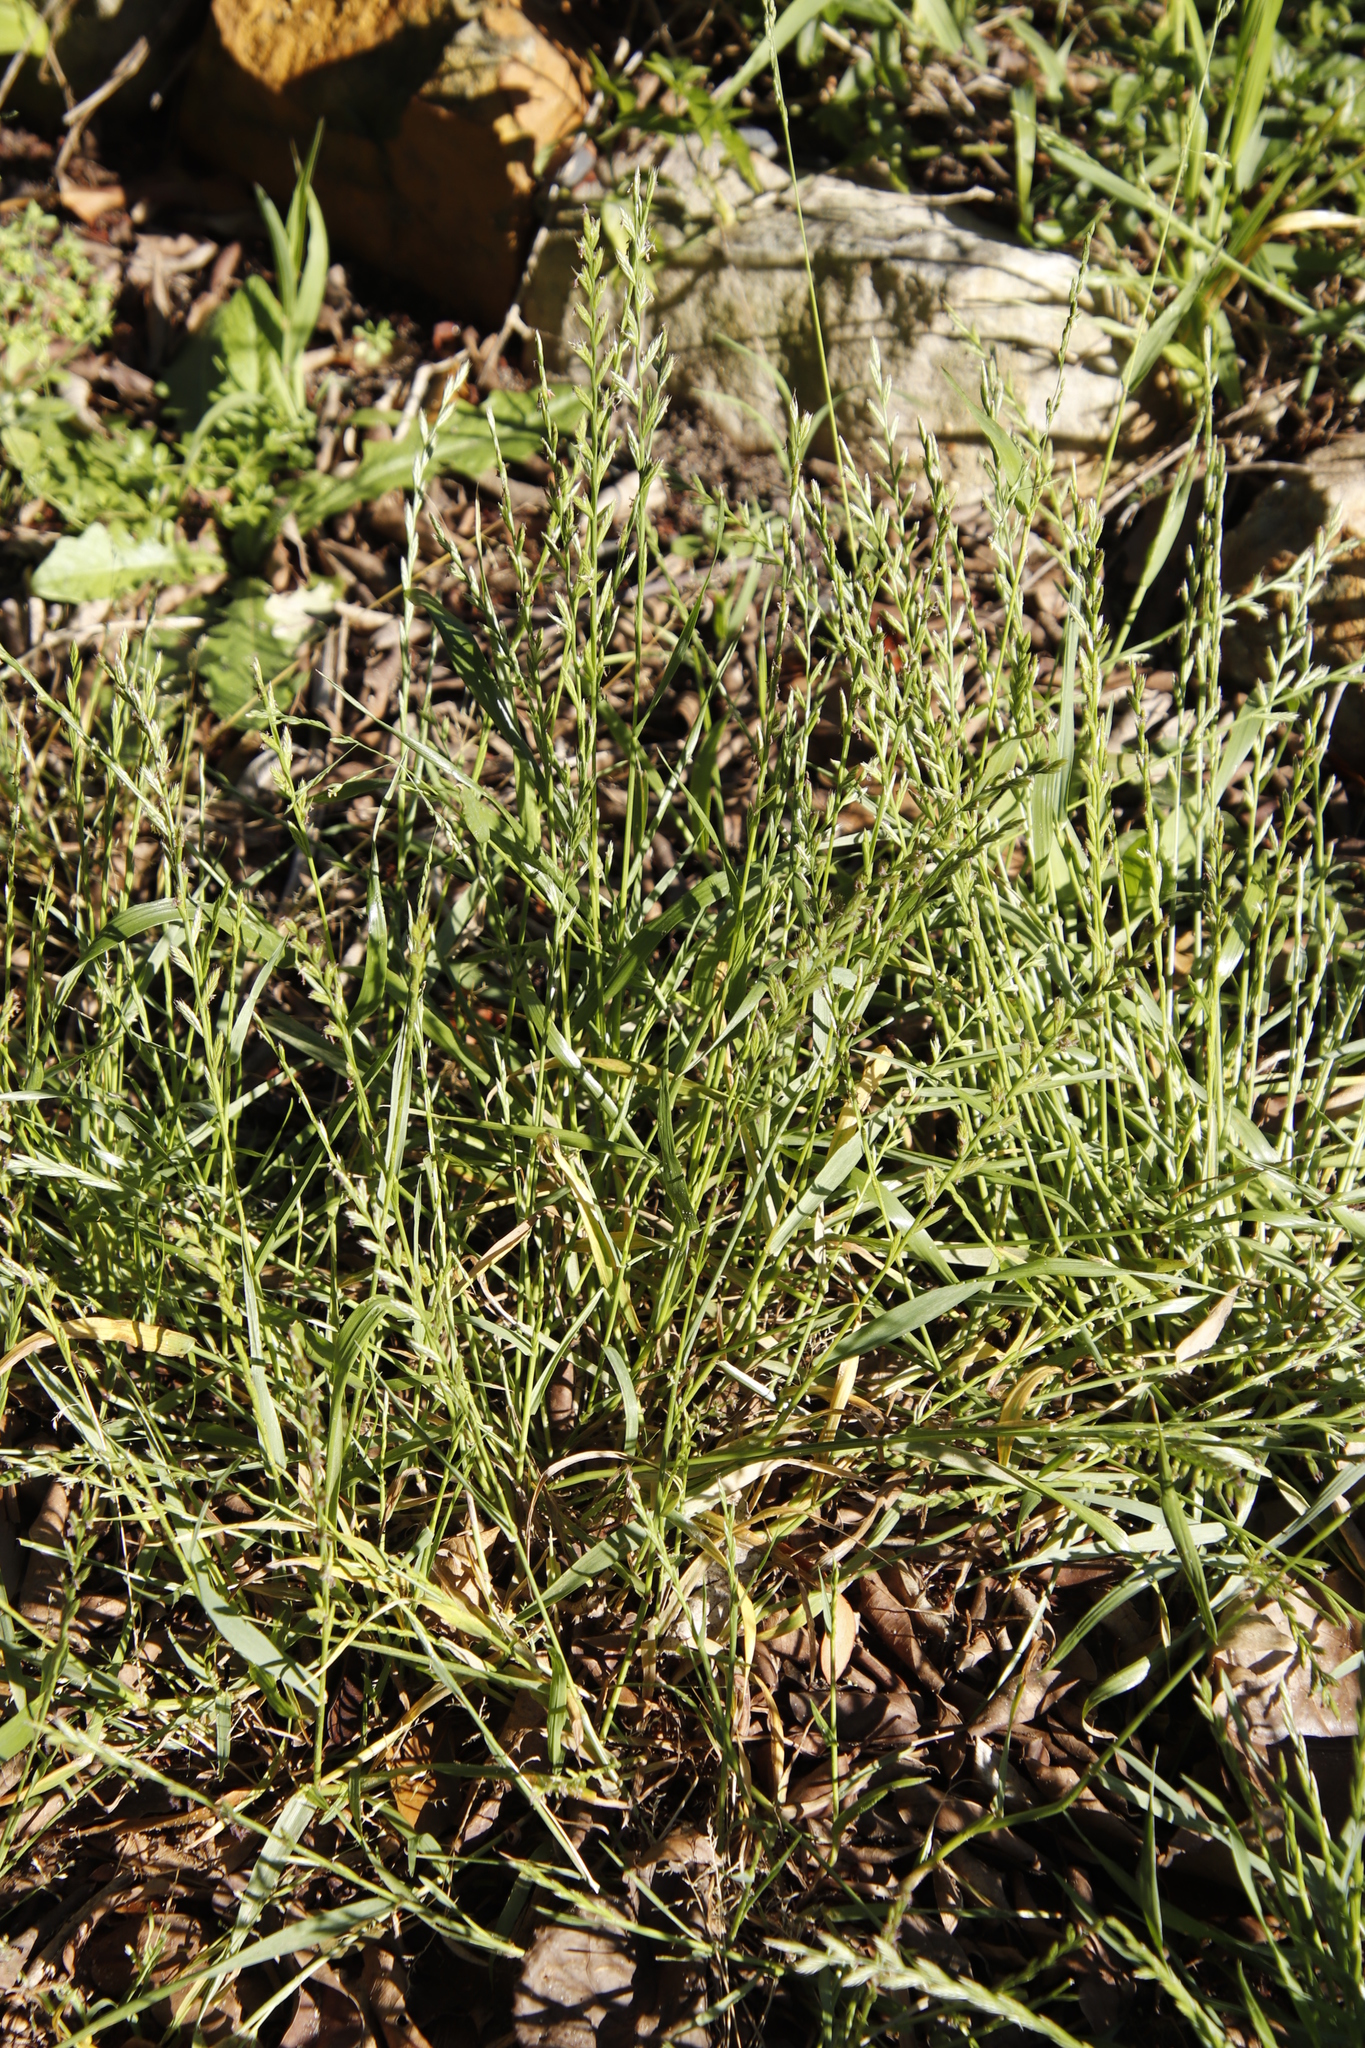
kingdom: Plantae
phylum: Tracheophyta
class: Liliopsida
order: Poales
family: Poaceae
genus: Lolium
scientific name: Lolium perenne
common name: Perennial ryegrass
